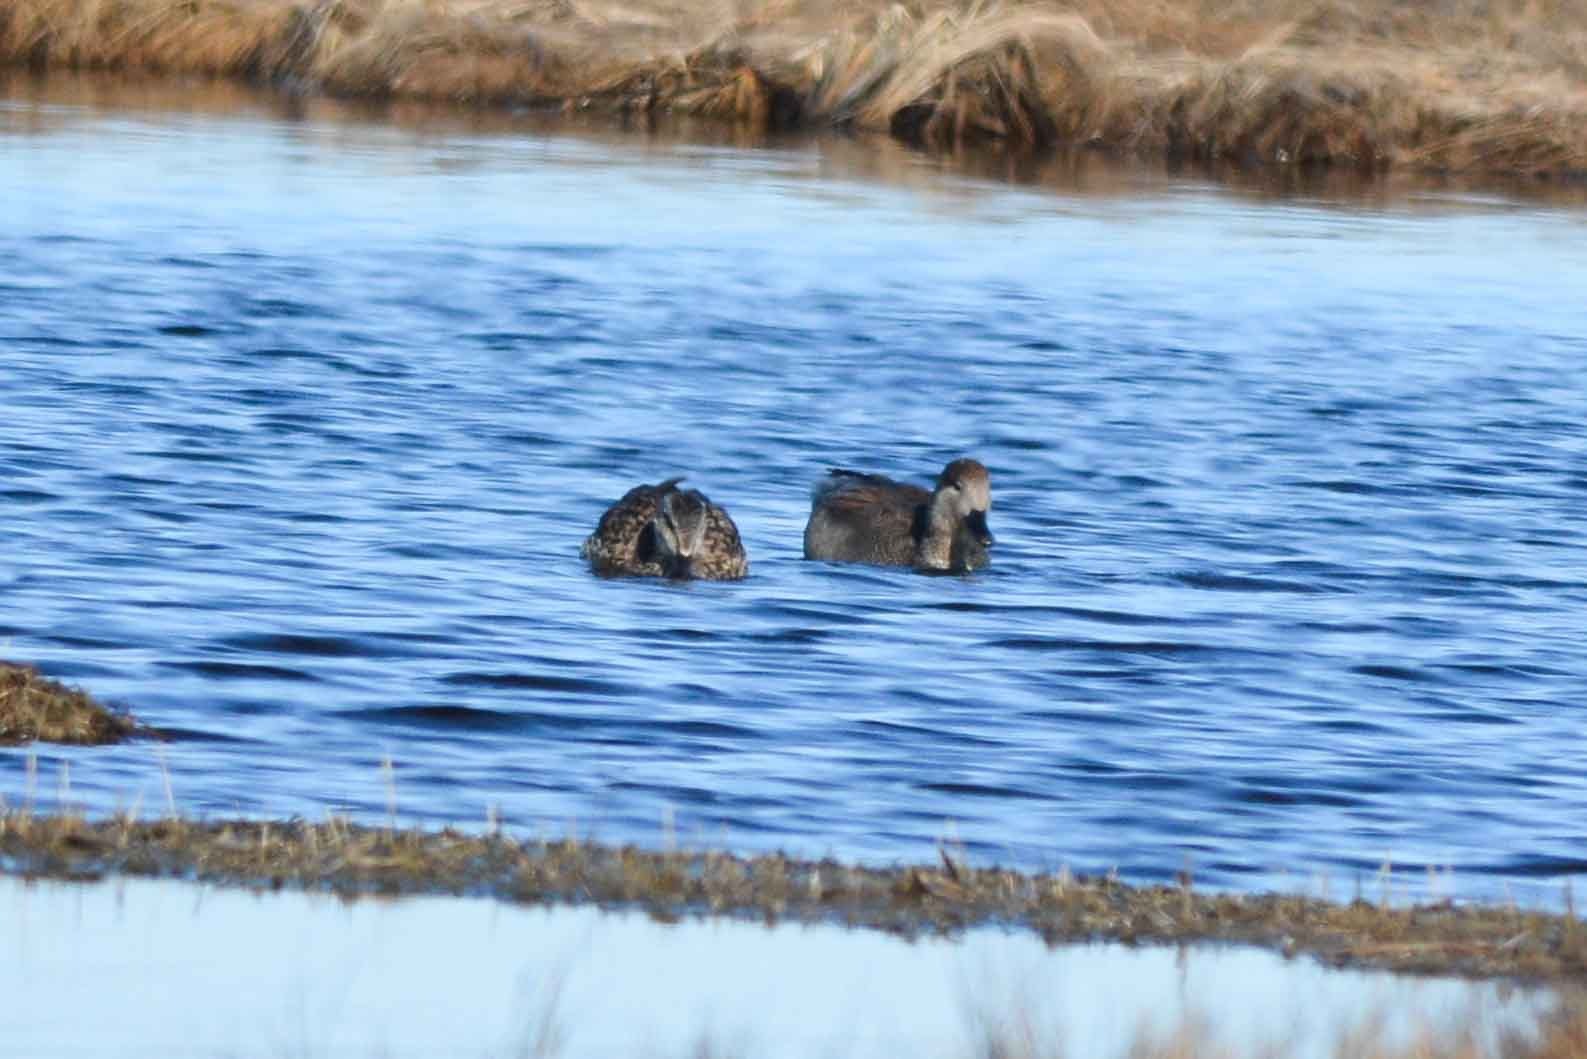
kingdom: Animalia
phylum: Chordata
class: Aves
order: Anseriformes
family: Anatidae
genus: Mareca
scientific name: Mareca strepera
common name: Gadwall
